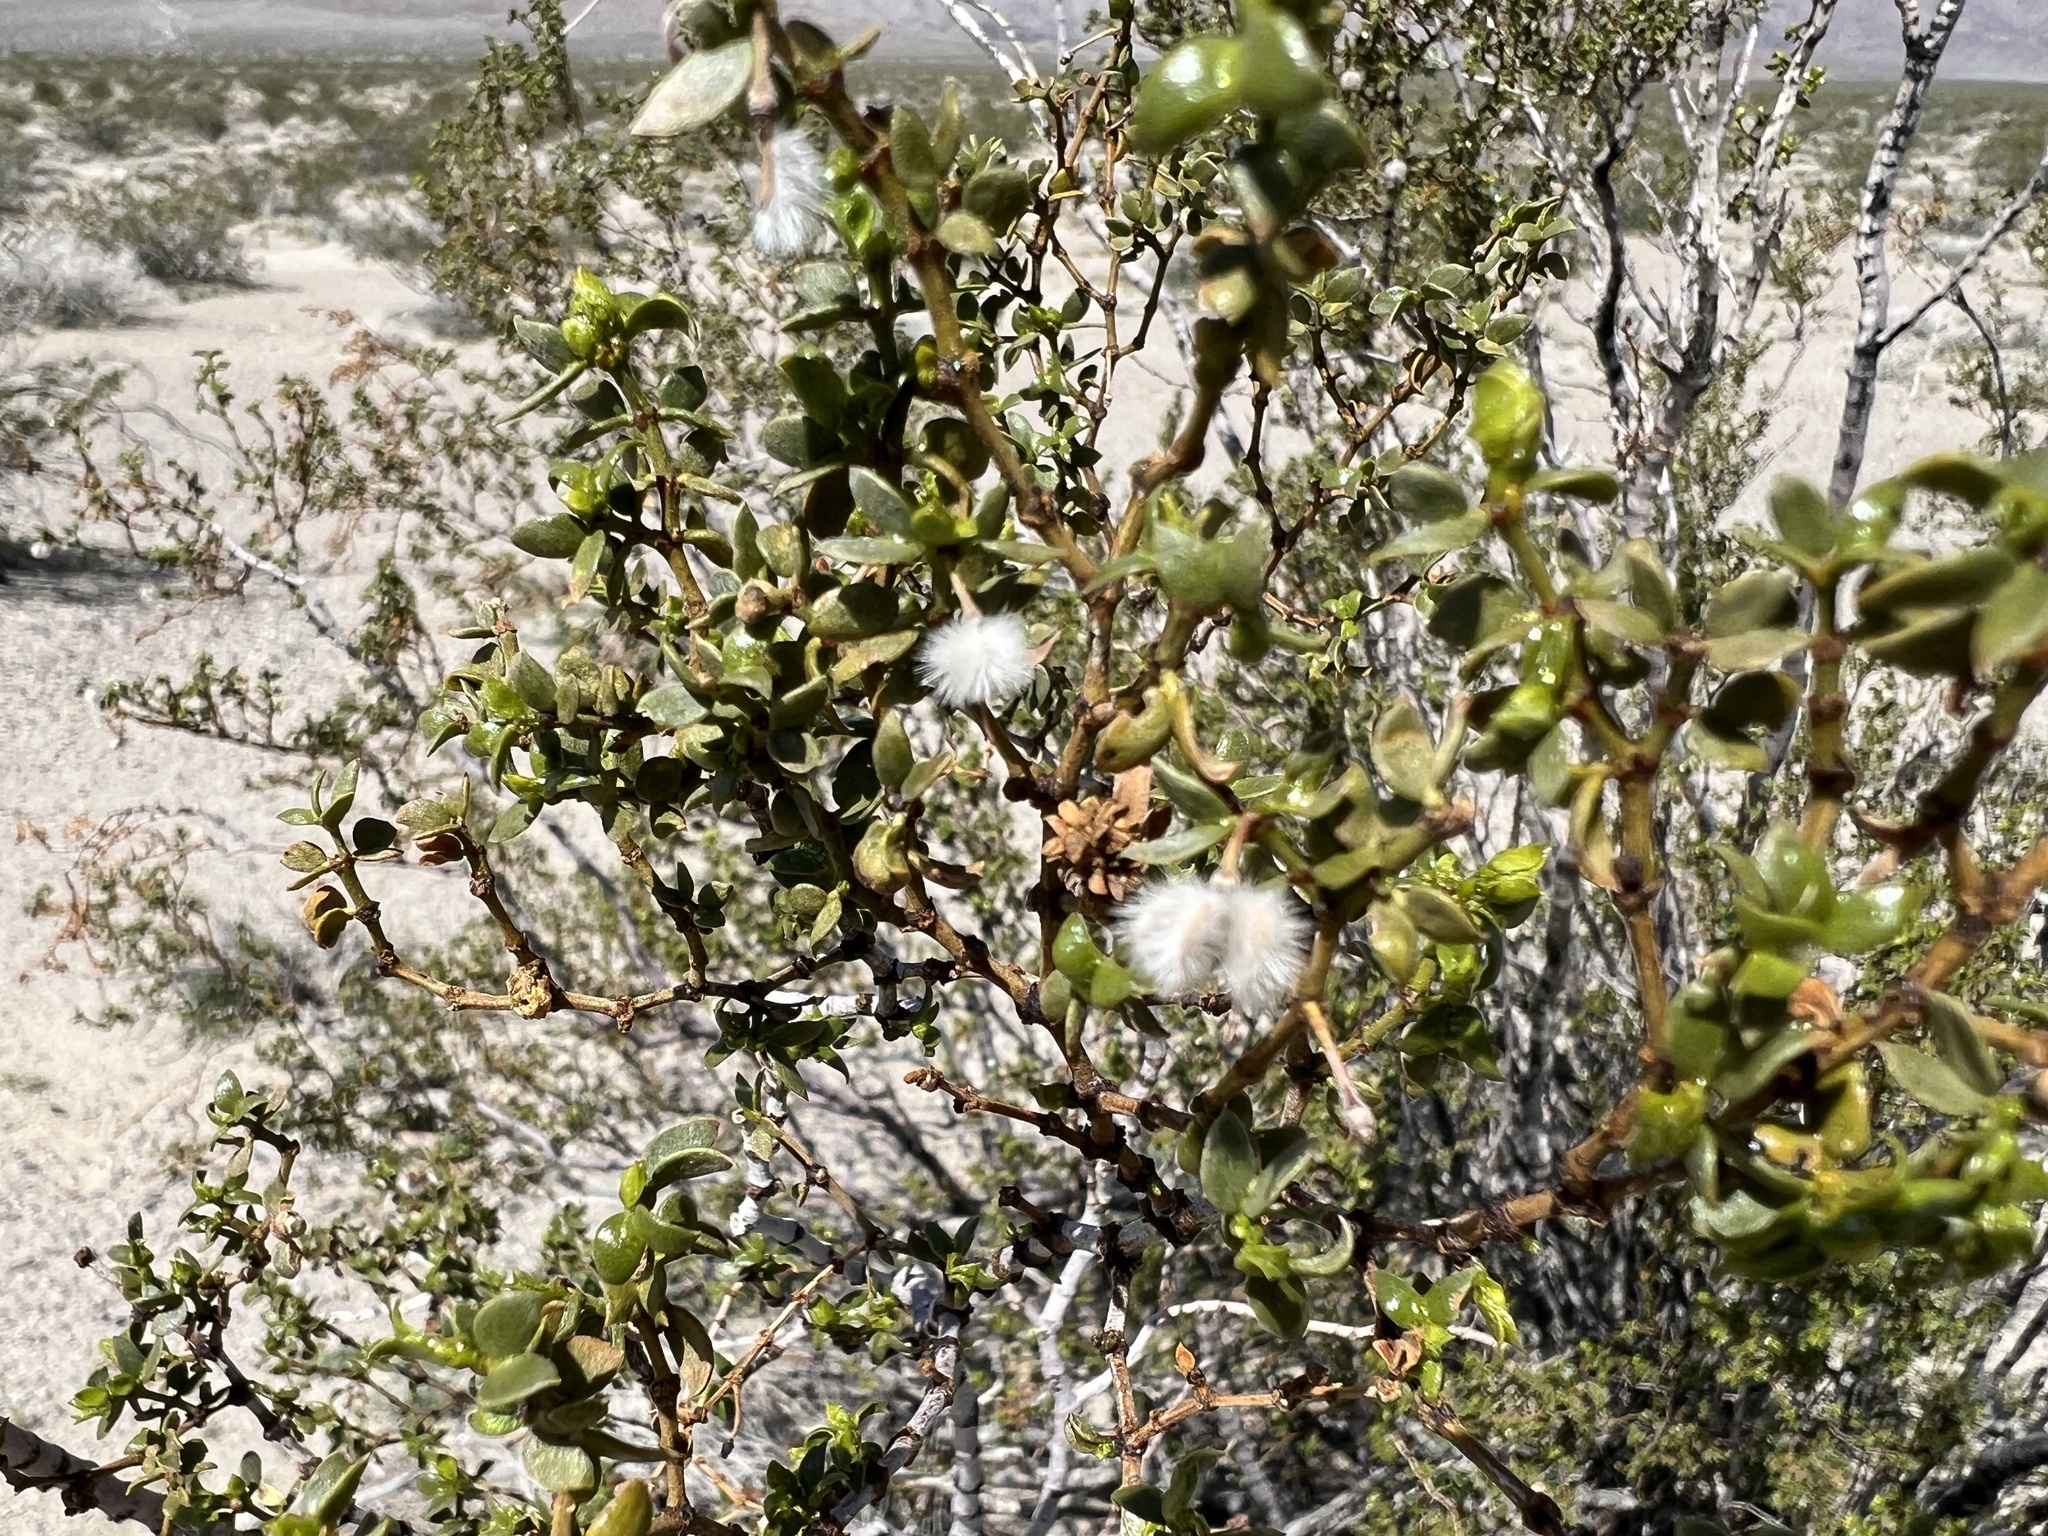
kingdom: Plantae
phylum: Tracheophyta
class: Magnoliopsida
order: Zygophyllales
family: Zygophyllaceae
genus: Larrea
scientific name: Larrea tridentata
